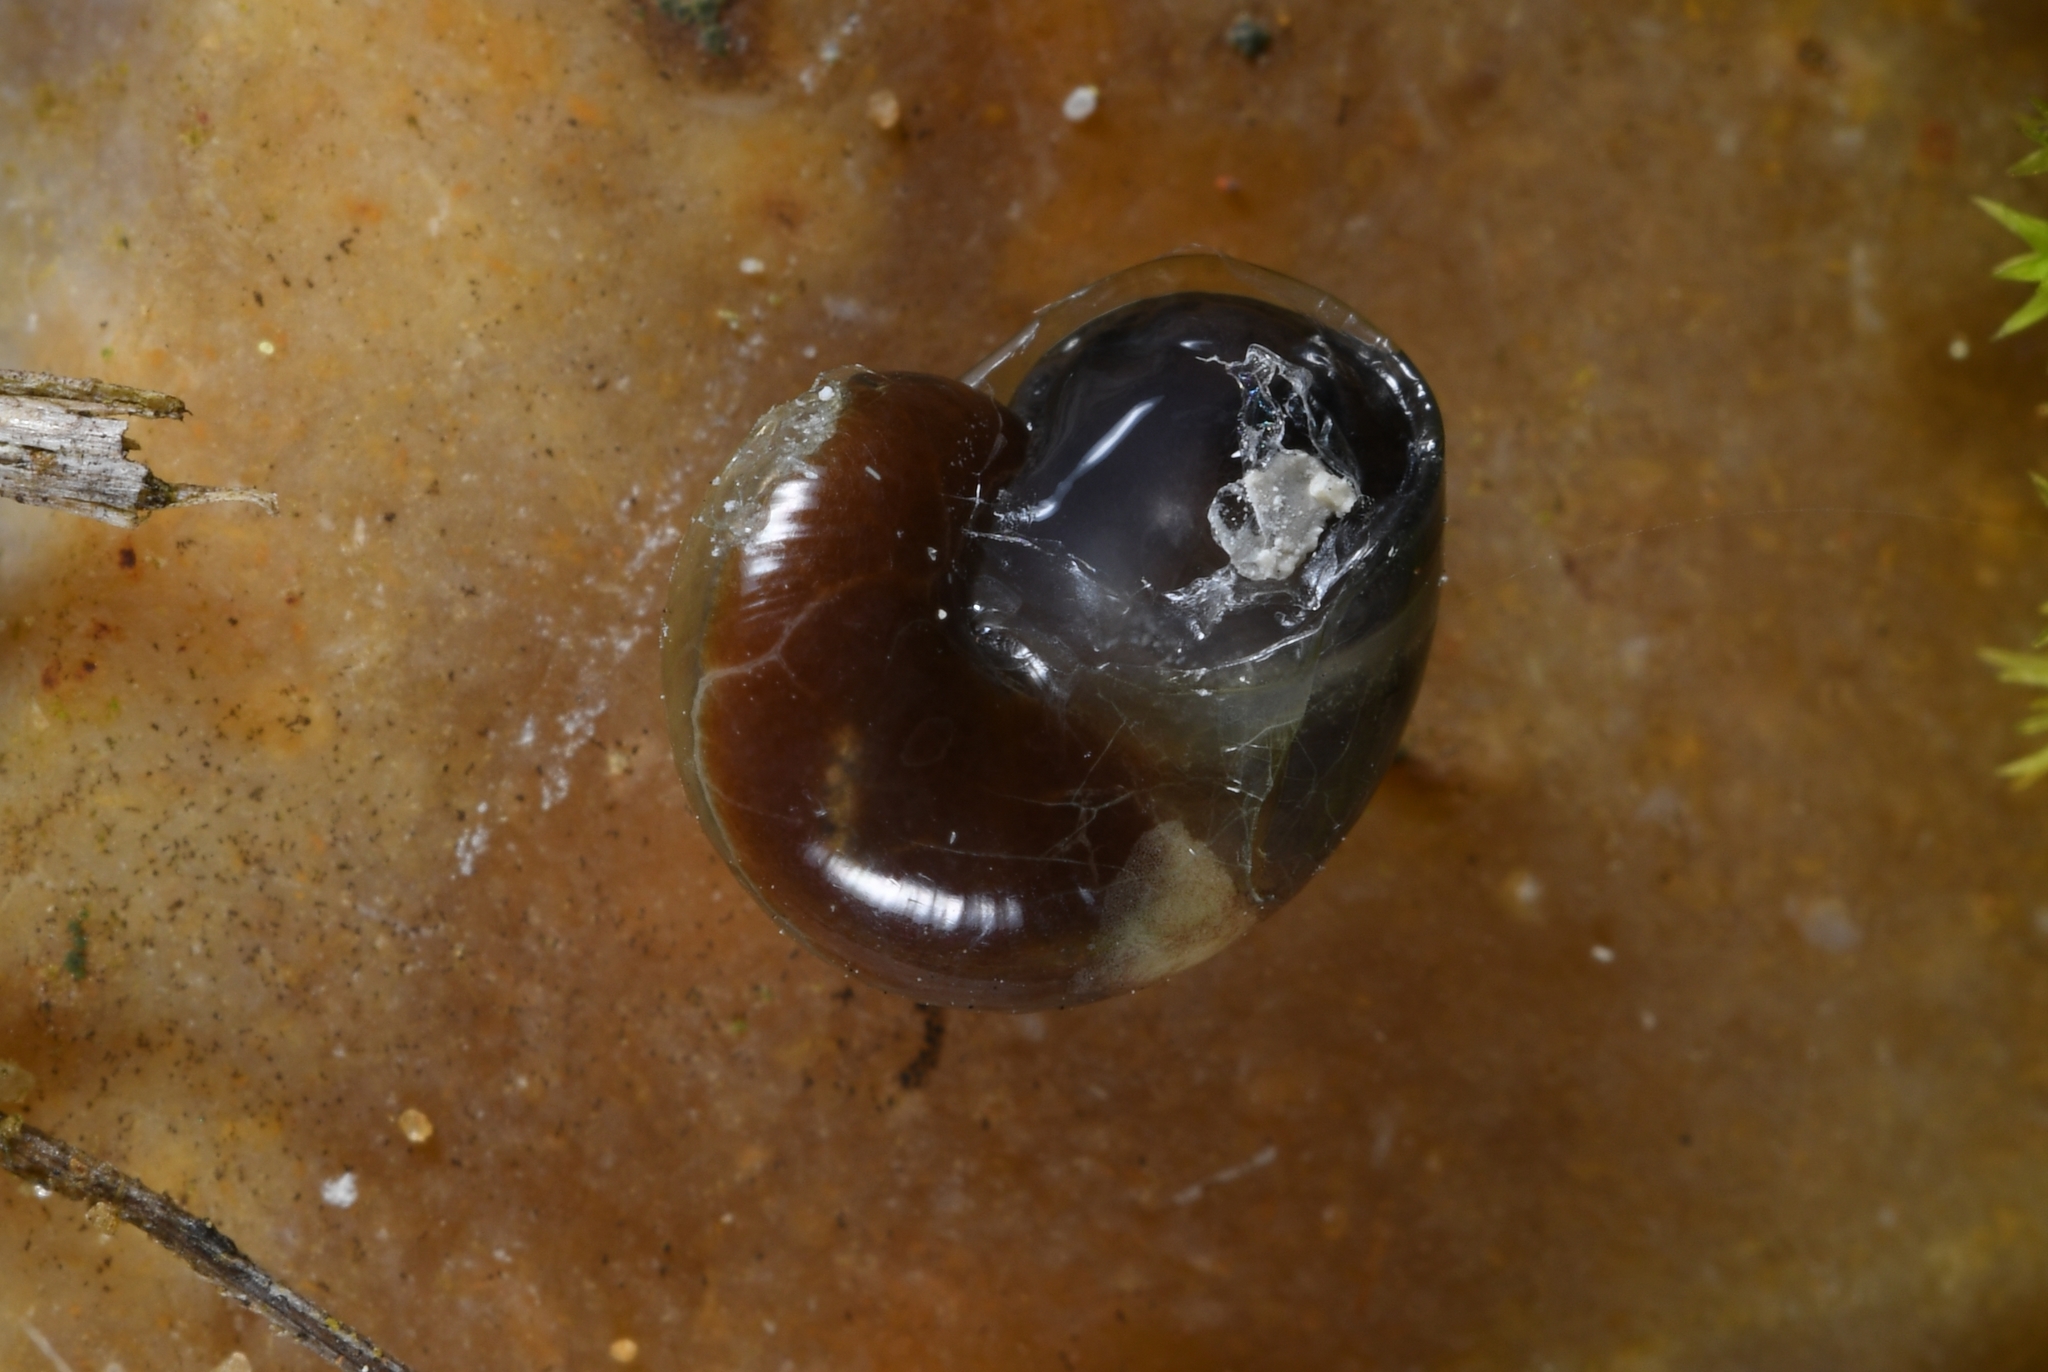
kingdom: Animalia
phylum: Mollusca
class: Gastropoda
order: Stylommatophora
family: Vitrinidae
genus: Vitrina
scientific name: Vitrina pellucida
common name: Pellucid glass snail
